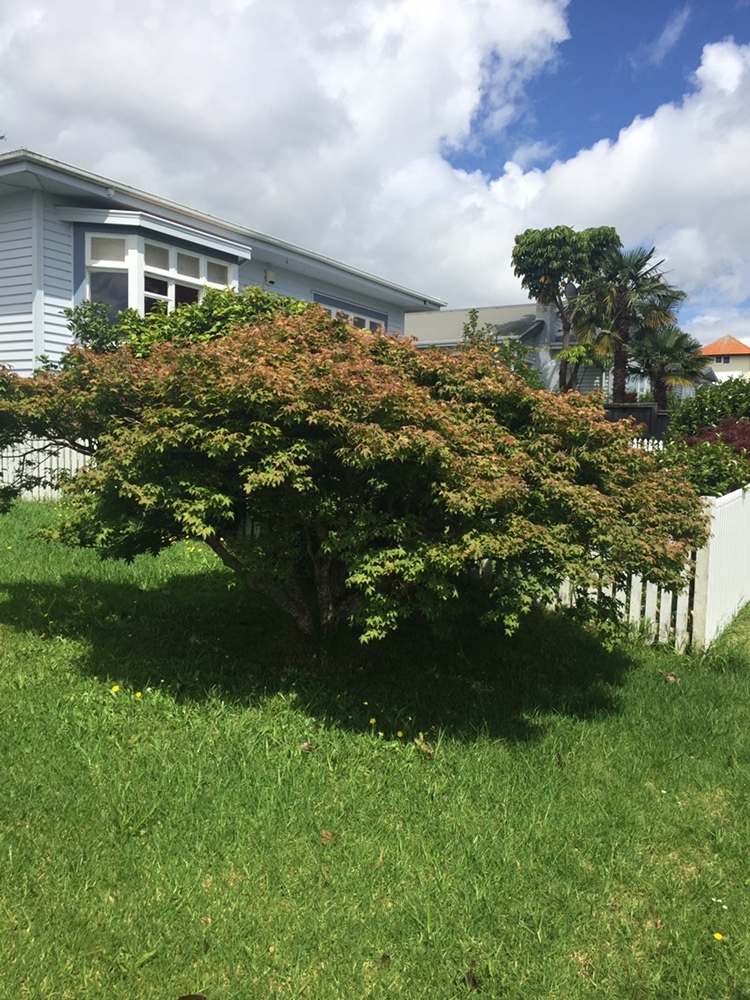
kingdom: Animalia
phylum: Arthropoda
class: Insecta
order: Hemiptera
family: Cicadellidae
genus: Japananus
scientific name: Japananus hyalinus
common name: The japanese maple leafhopper
